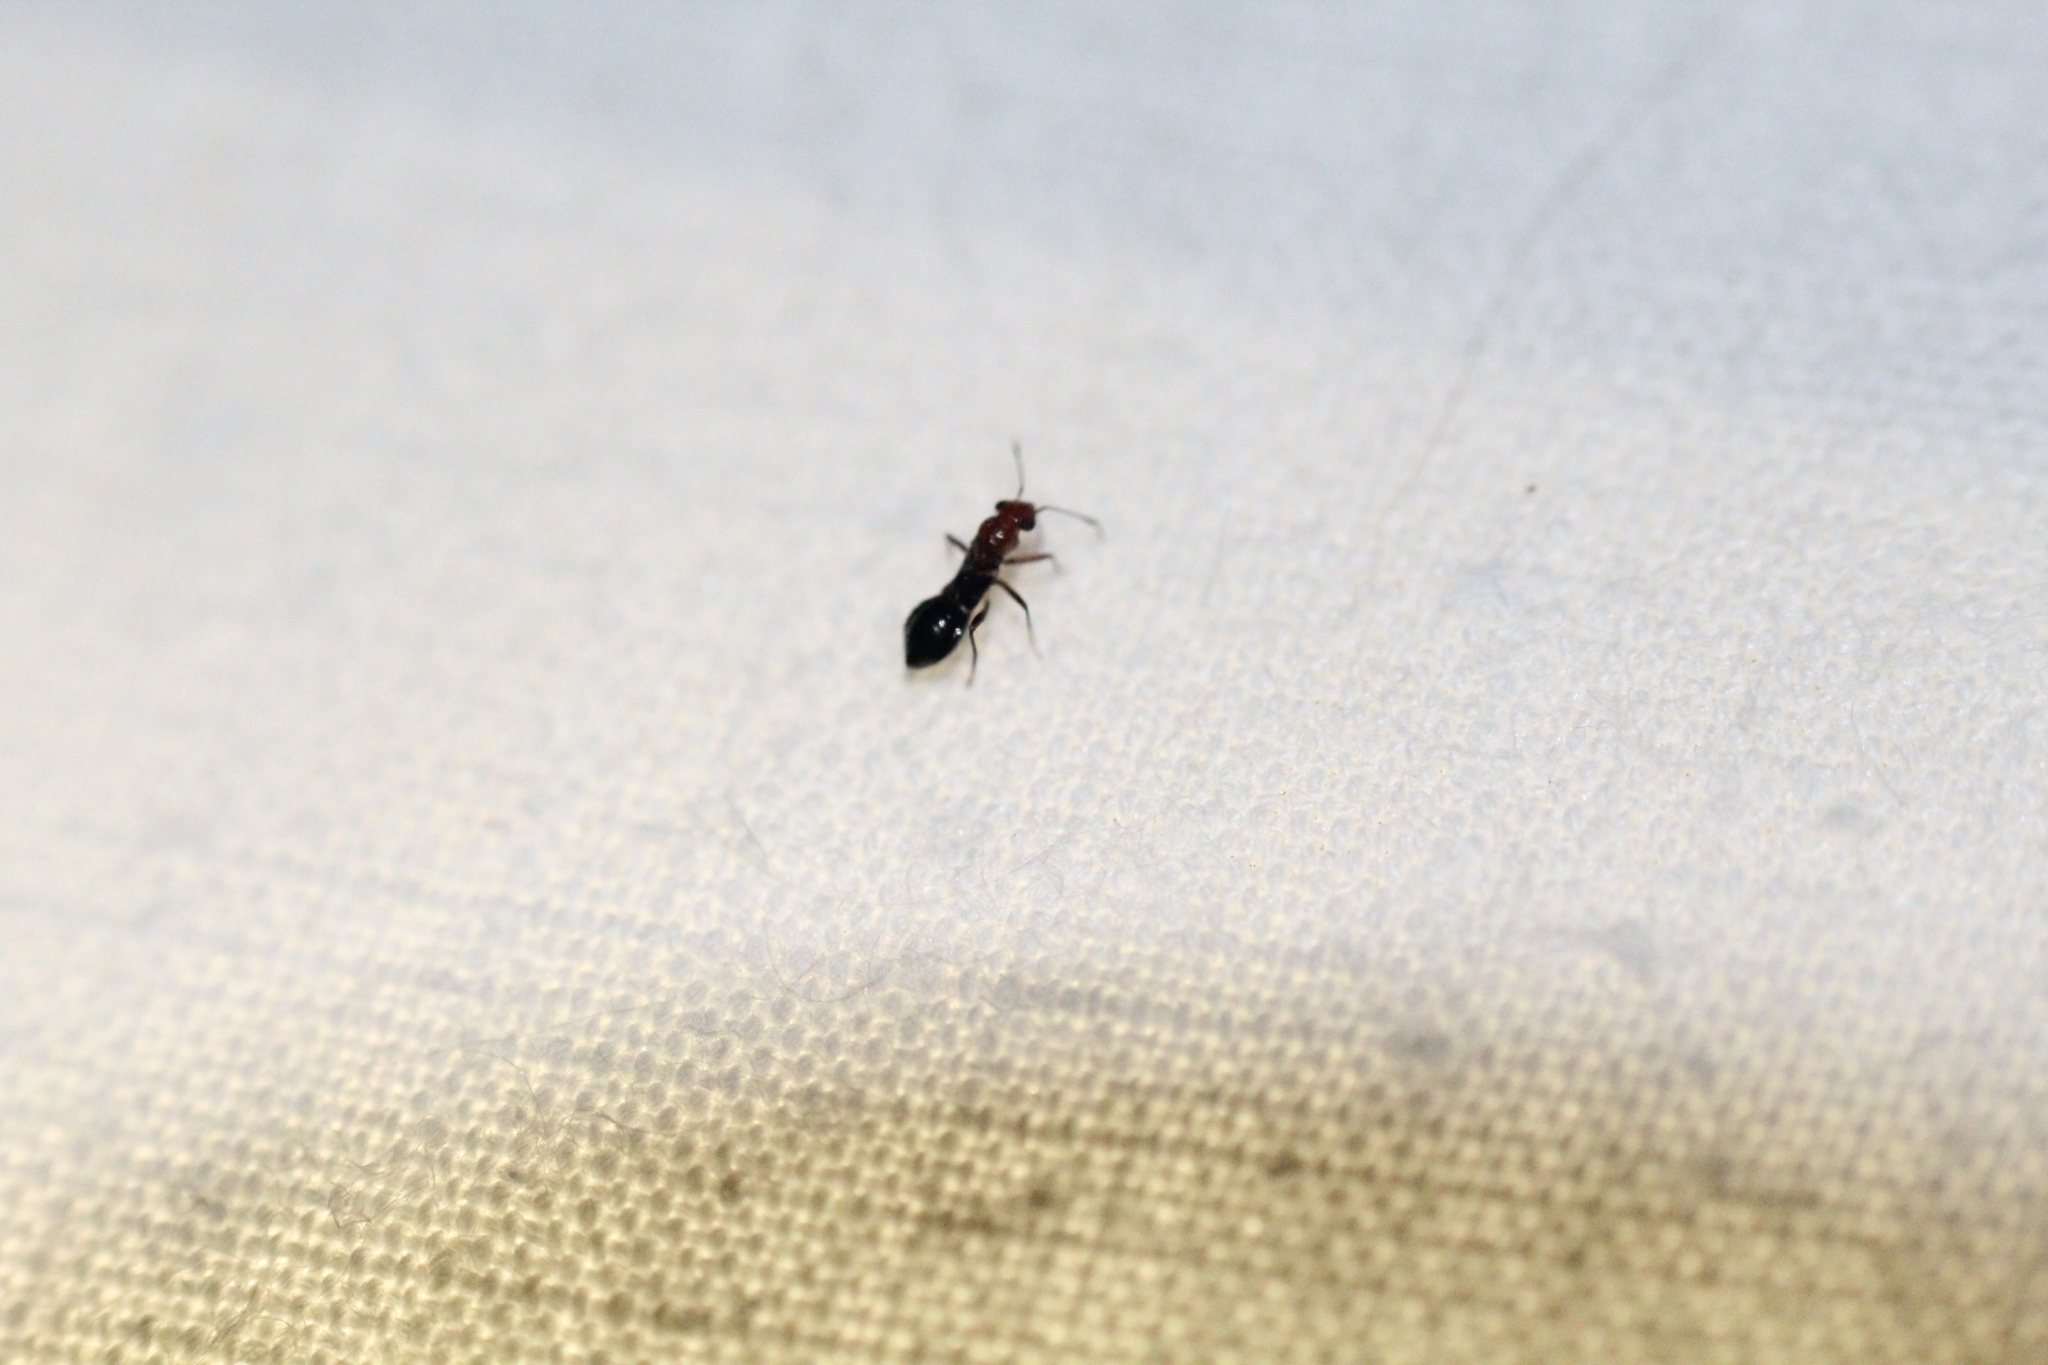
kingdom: Animalia
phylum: Arthropoda
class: Insecta
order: Hemiptera
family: Miridae
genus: Mimocoris
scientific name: Mimocoris rugicollis
